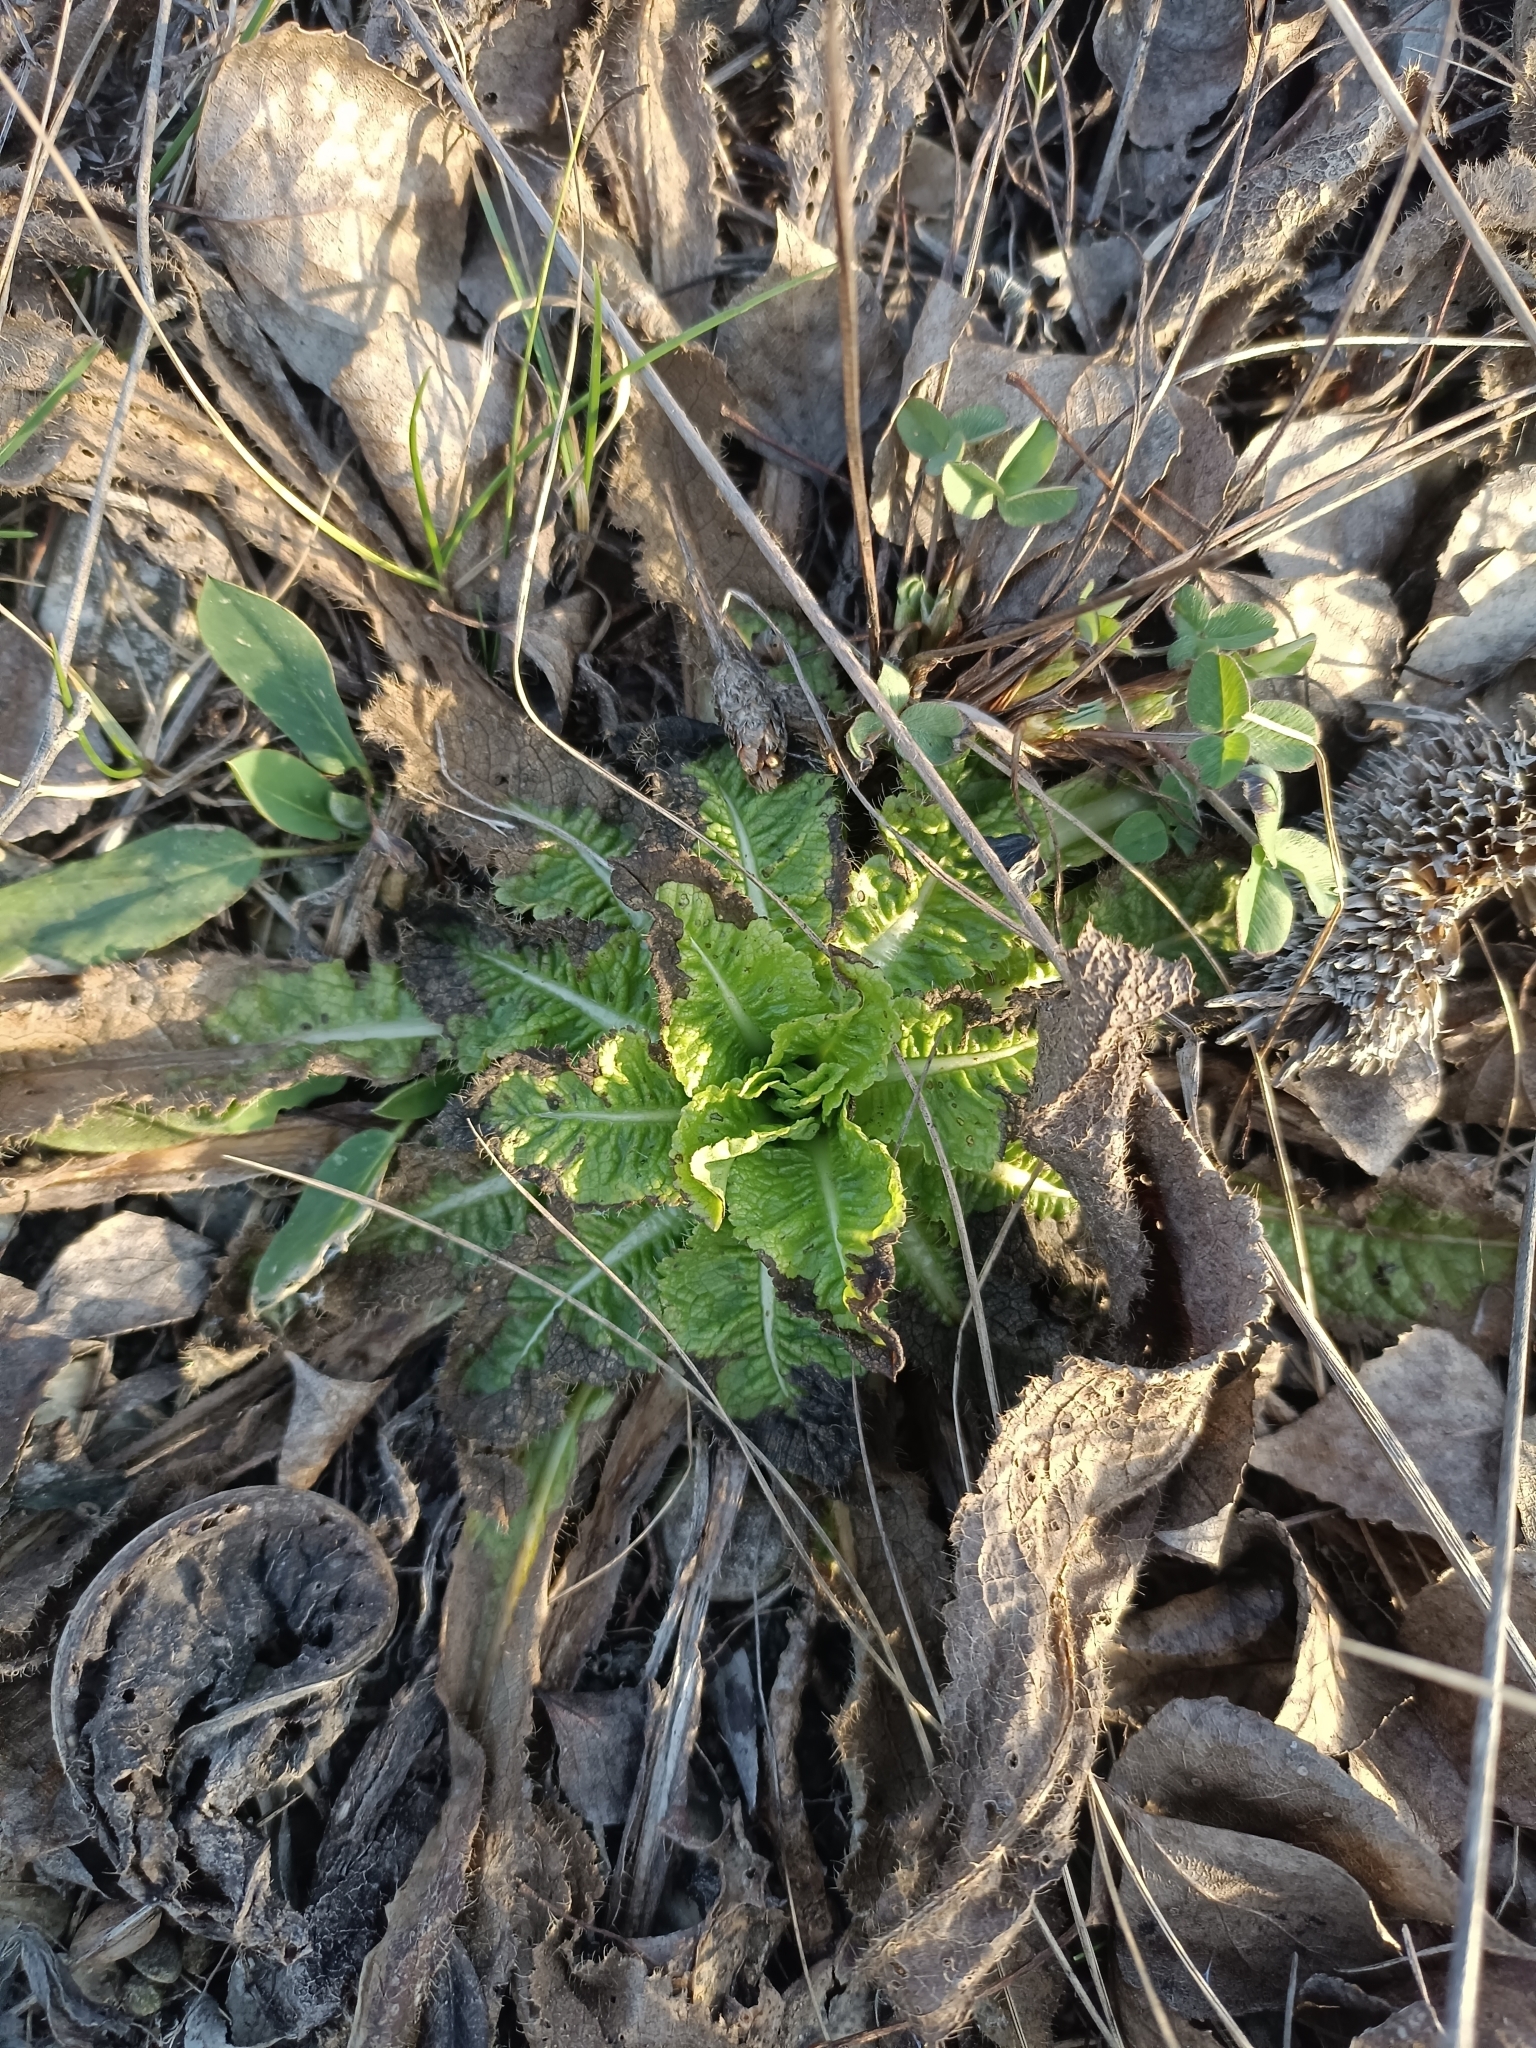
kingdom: Plantae
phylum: Tracheophyta
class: Magnoliopsida
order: Dipsacales
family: Caprifoliaceae
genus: Dipsacus
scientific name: Dipsacus laciniatus
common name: Cut-leaved teasel
